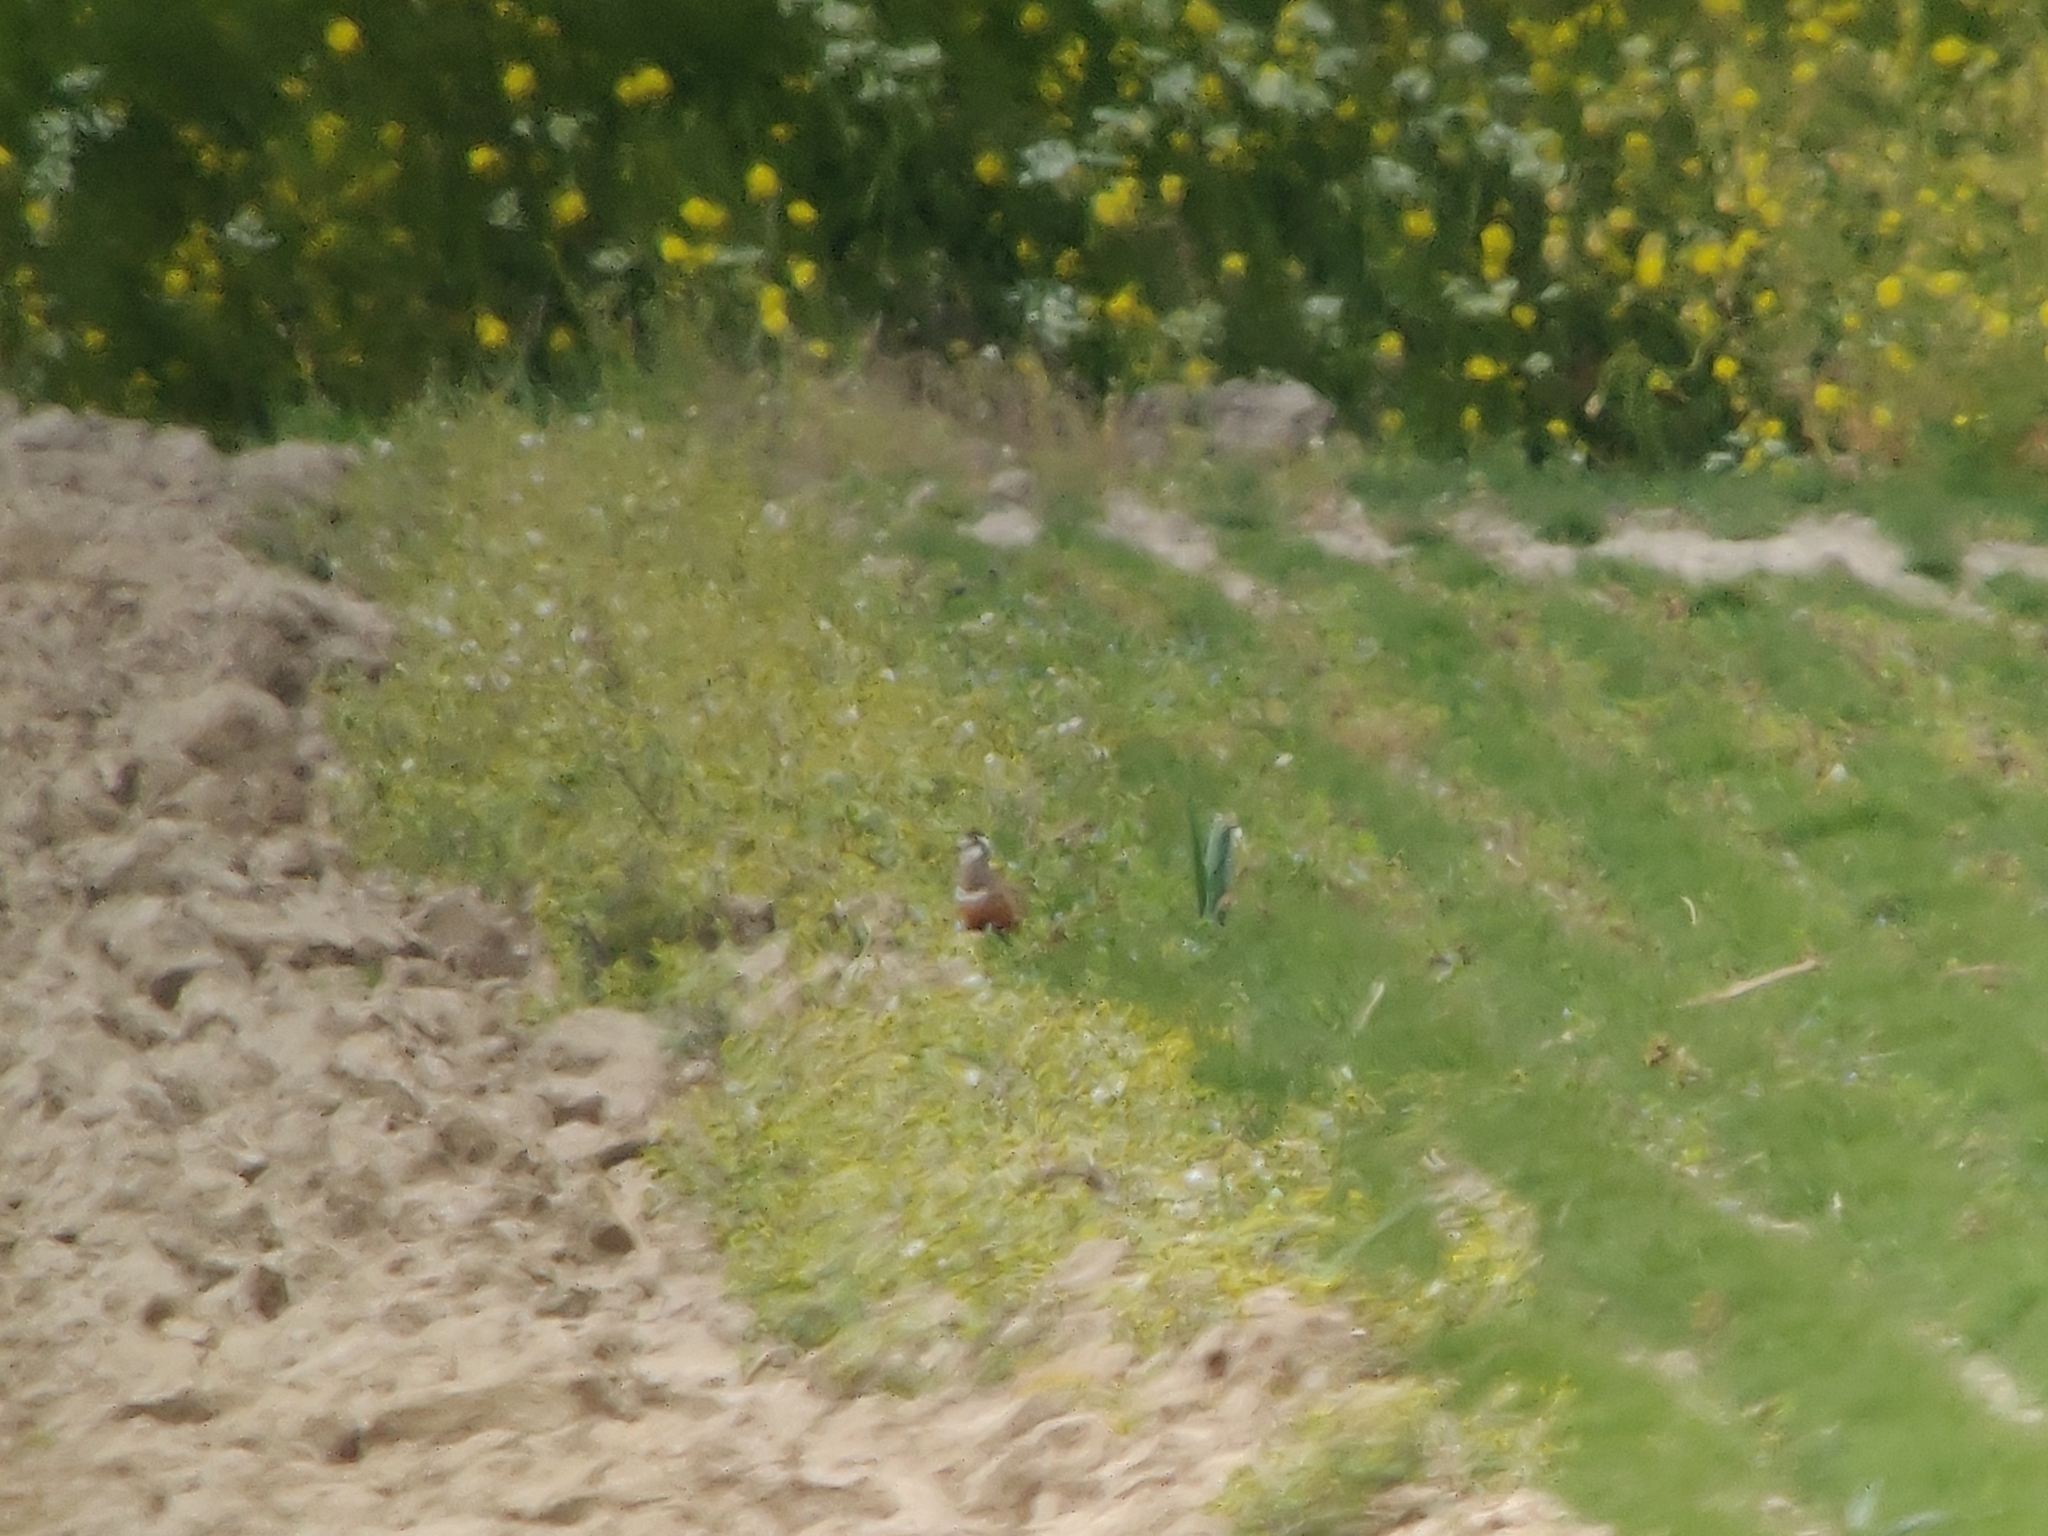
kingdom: Animalia
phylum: Chordata
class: Aves
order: Charadriiformes
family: Charadriidae
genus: Charadrius
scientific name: Charadrius morinellus
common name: Eurasian dotterel
